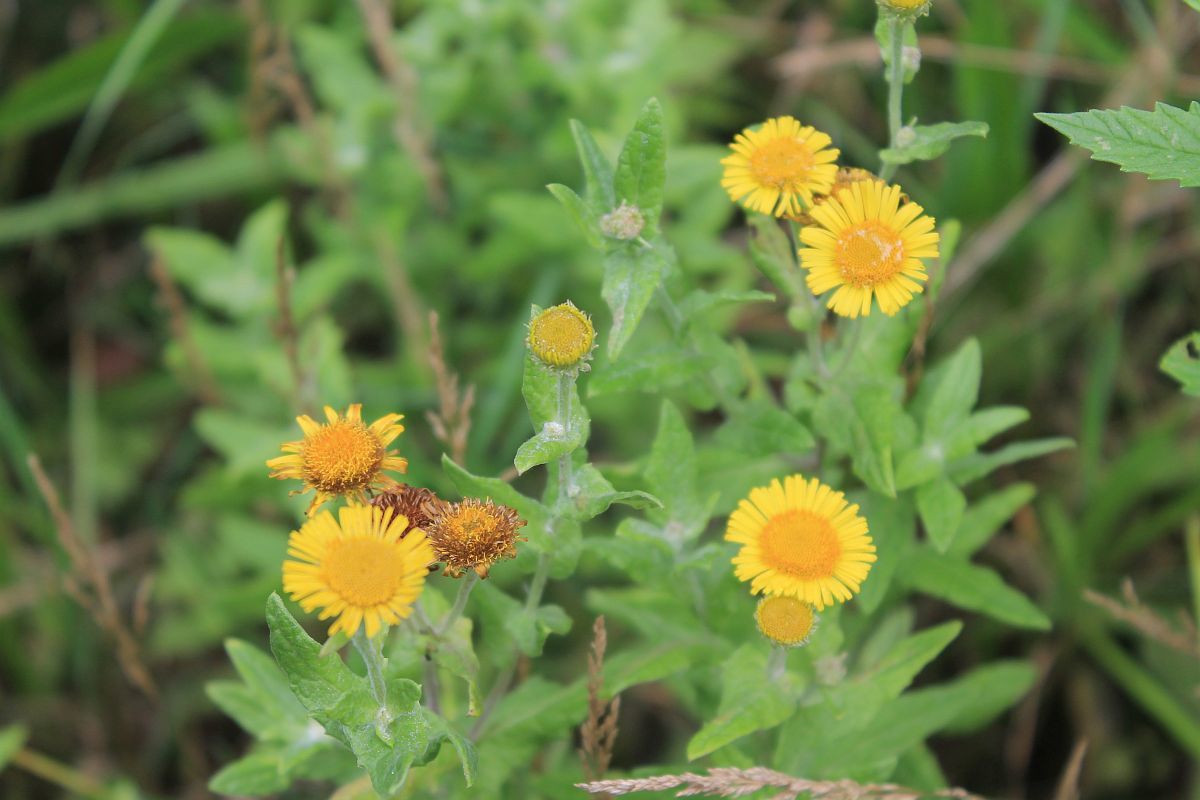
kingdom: Plantae
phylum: Tracheophyta
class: Magnoliopsida
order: Asterales
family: Asteraceae
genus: Pulicaria
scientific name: Pulicaria dysenterica
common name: Common fleabane
